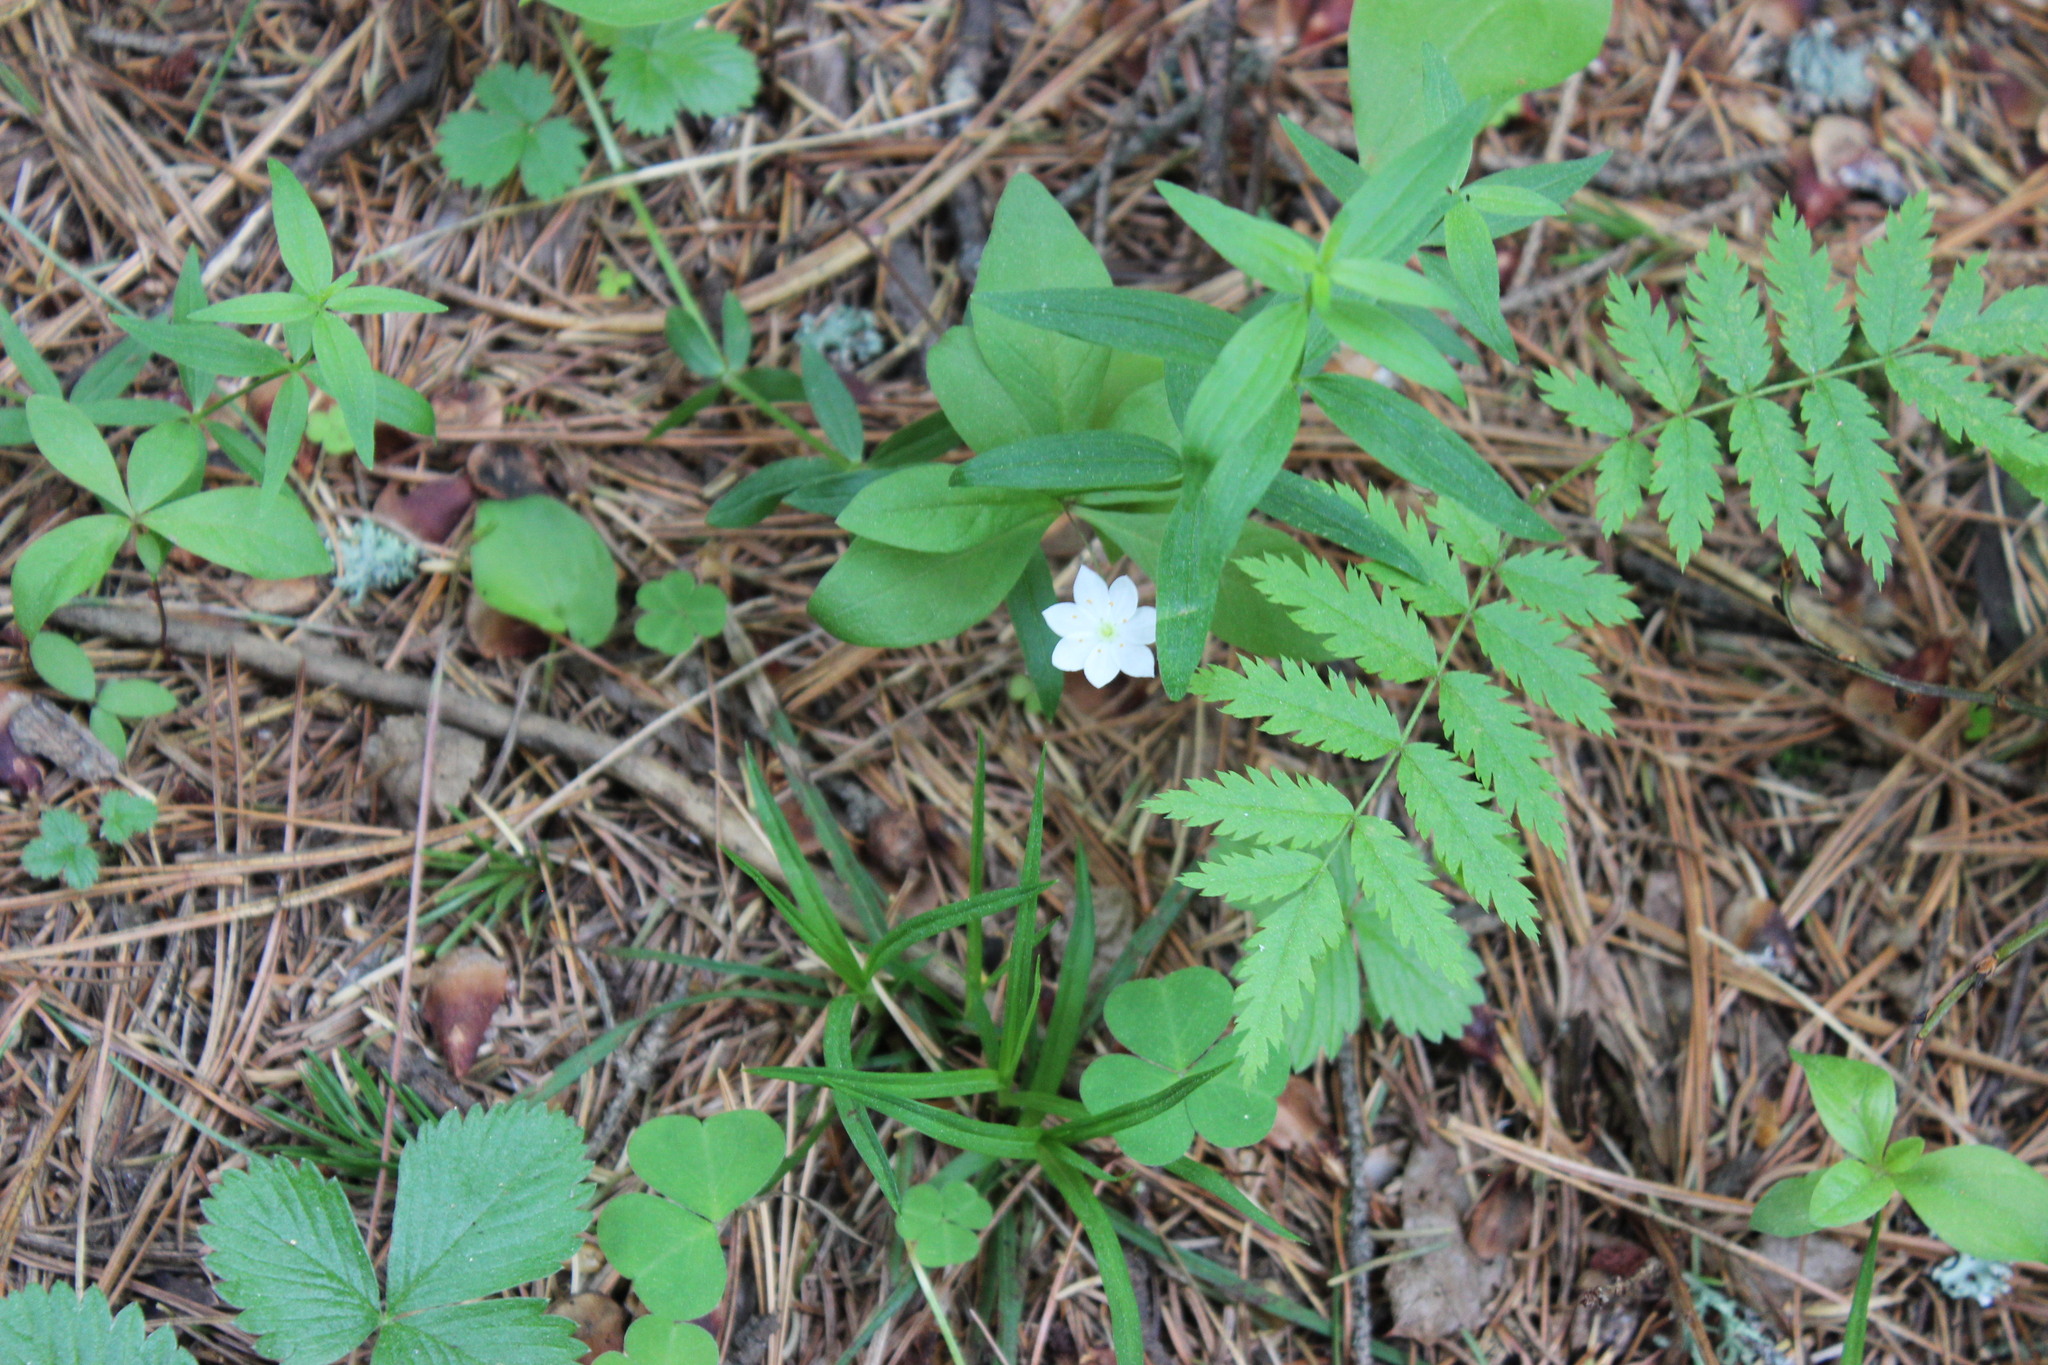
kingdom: Plantae
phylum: Tracheophyta
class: Magnoliopsida
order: Ericales
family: Primulaceae
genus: Lysimachia
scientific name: Lysimachia europaea
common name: Arctic starflower
